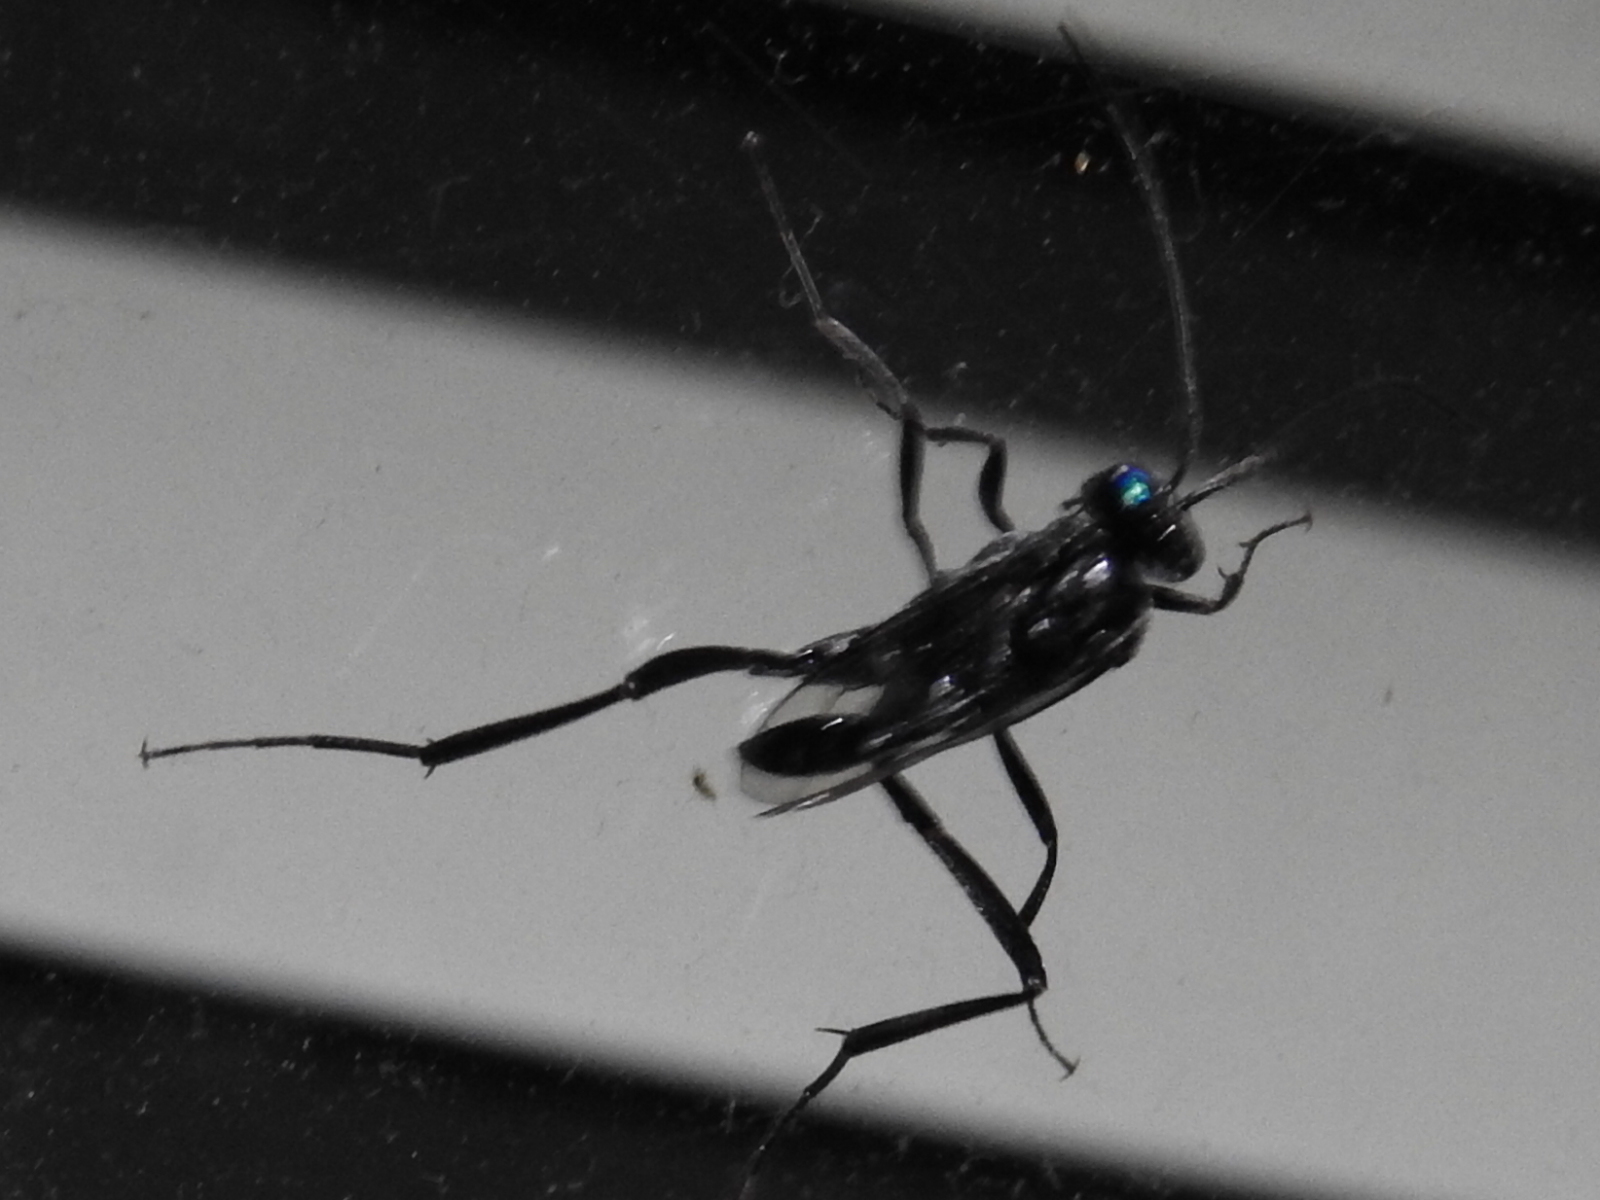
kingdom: Animalia
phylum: Arthropoda
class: Insecta
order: Hymenoptera
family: Evaniidae
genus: Evania
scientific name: Evania appendigaster
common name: Ensign wasp
